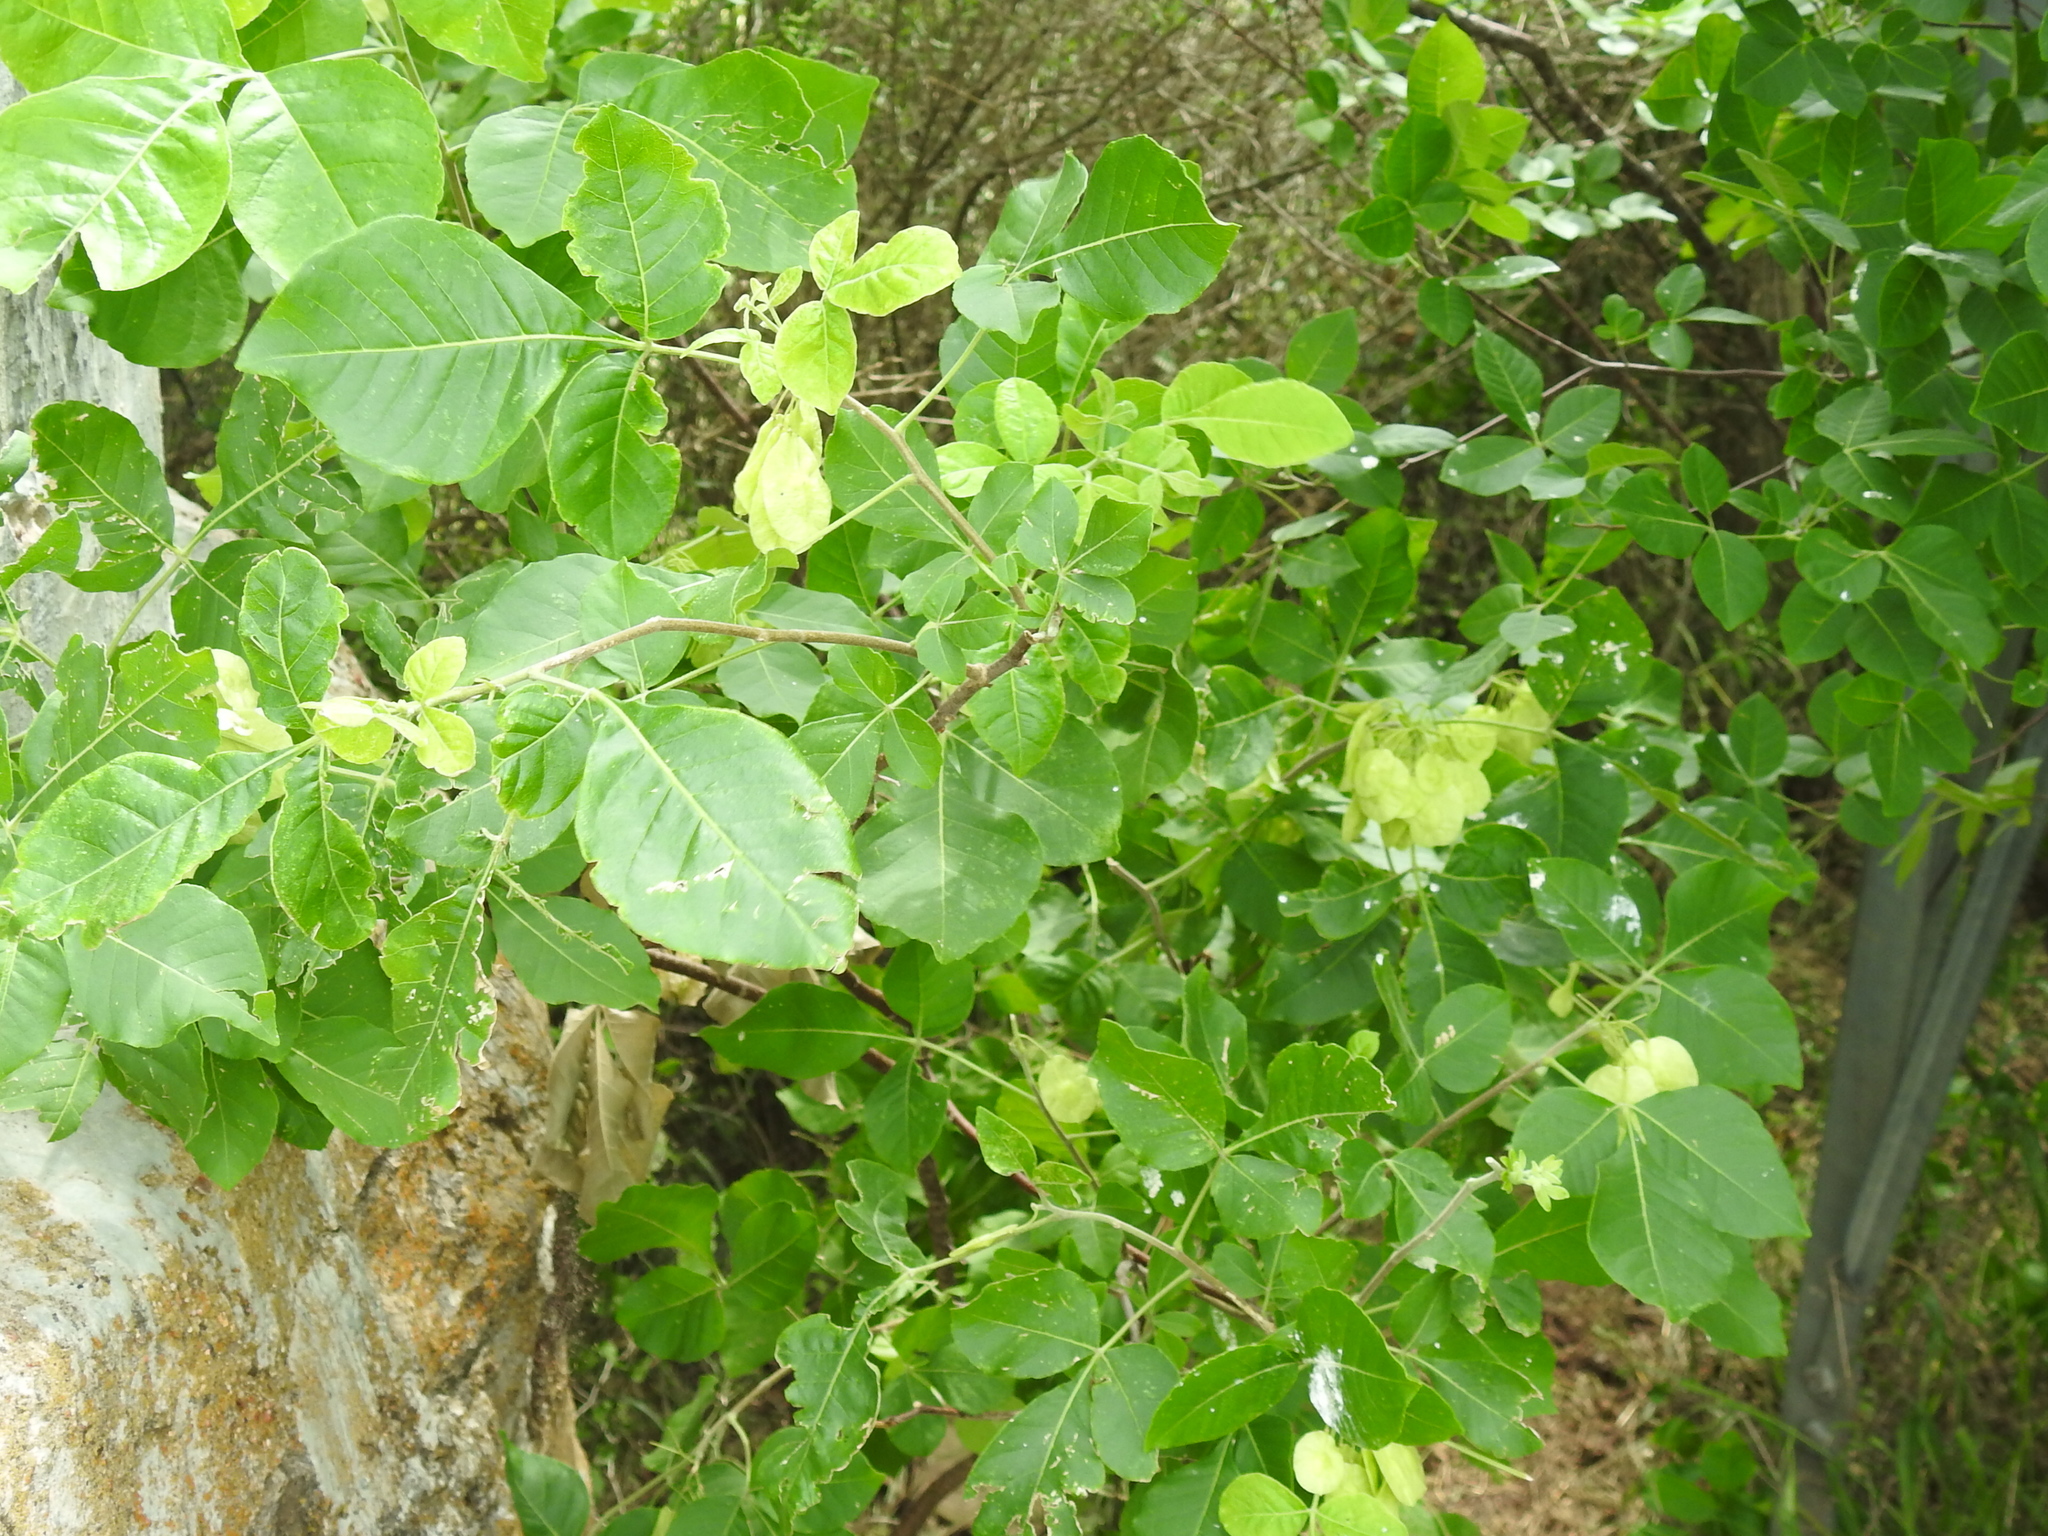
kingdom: Plantae
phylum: Tracheophyta
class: Magnoliopsida
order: Sapindales
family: Rutaceae
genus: Ptelea
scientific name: Ptelea trifoliata
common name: Common hop-tree
